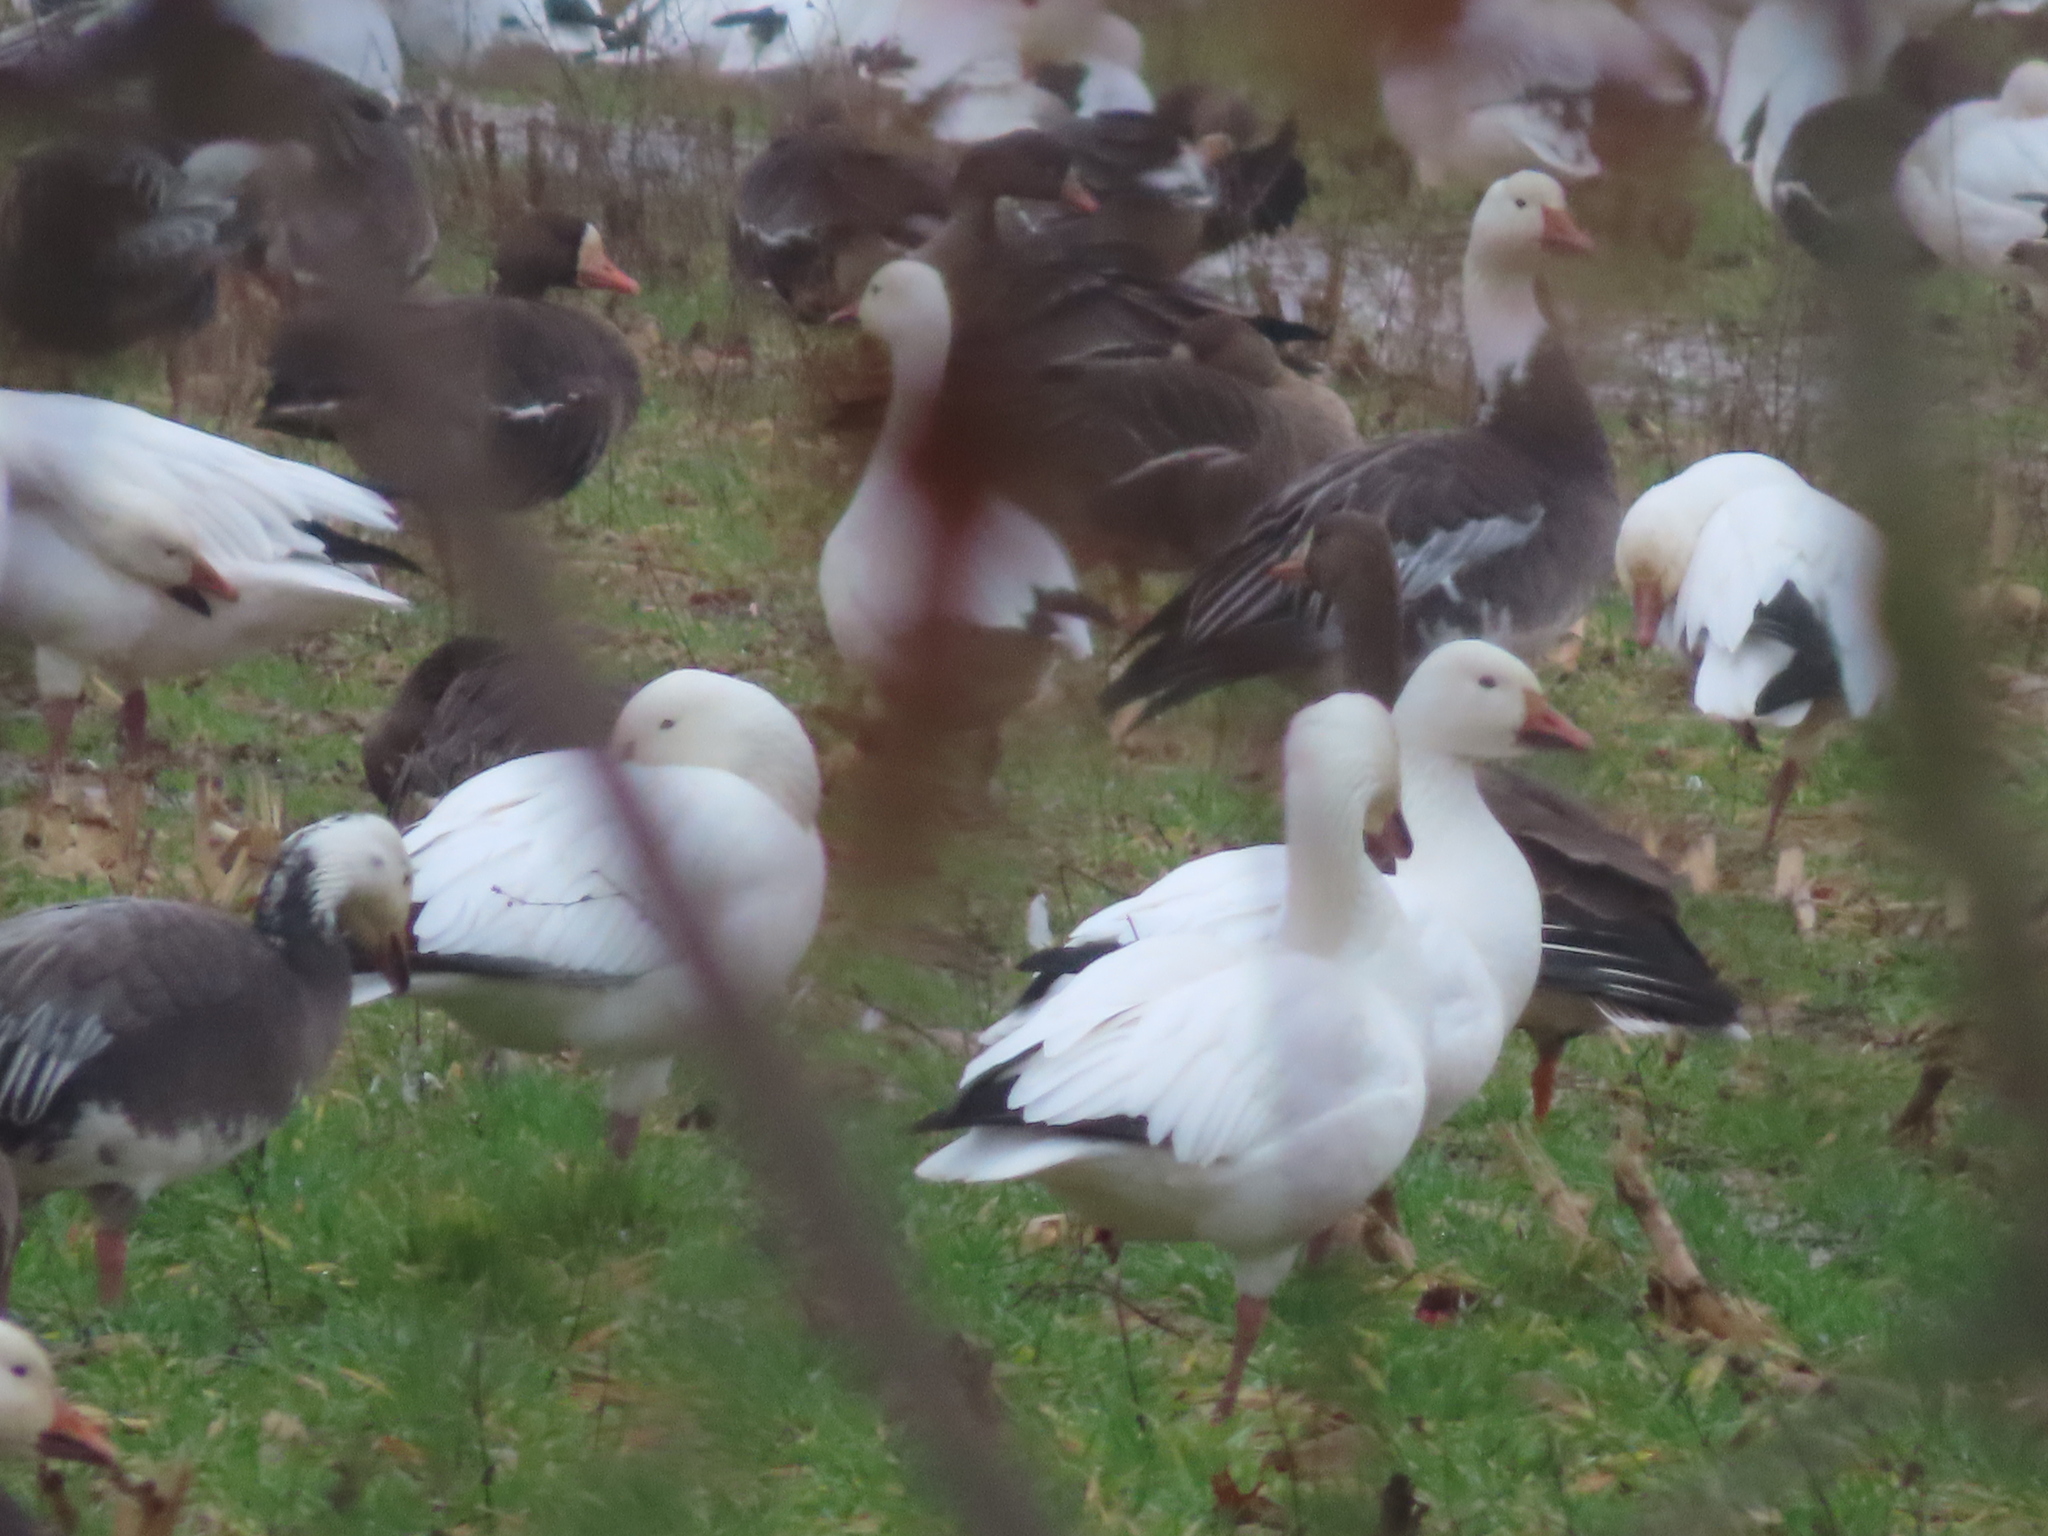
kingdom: Animalia
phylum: Chordata
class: Aves
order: Anseriformes
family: Anatidae
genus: Anser
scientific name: Anser caerulescens
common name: Snow goose
